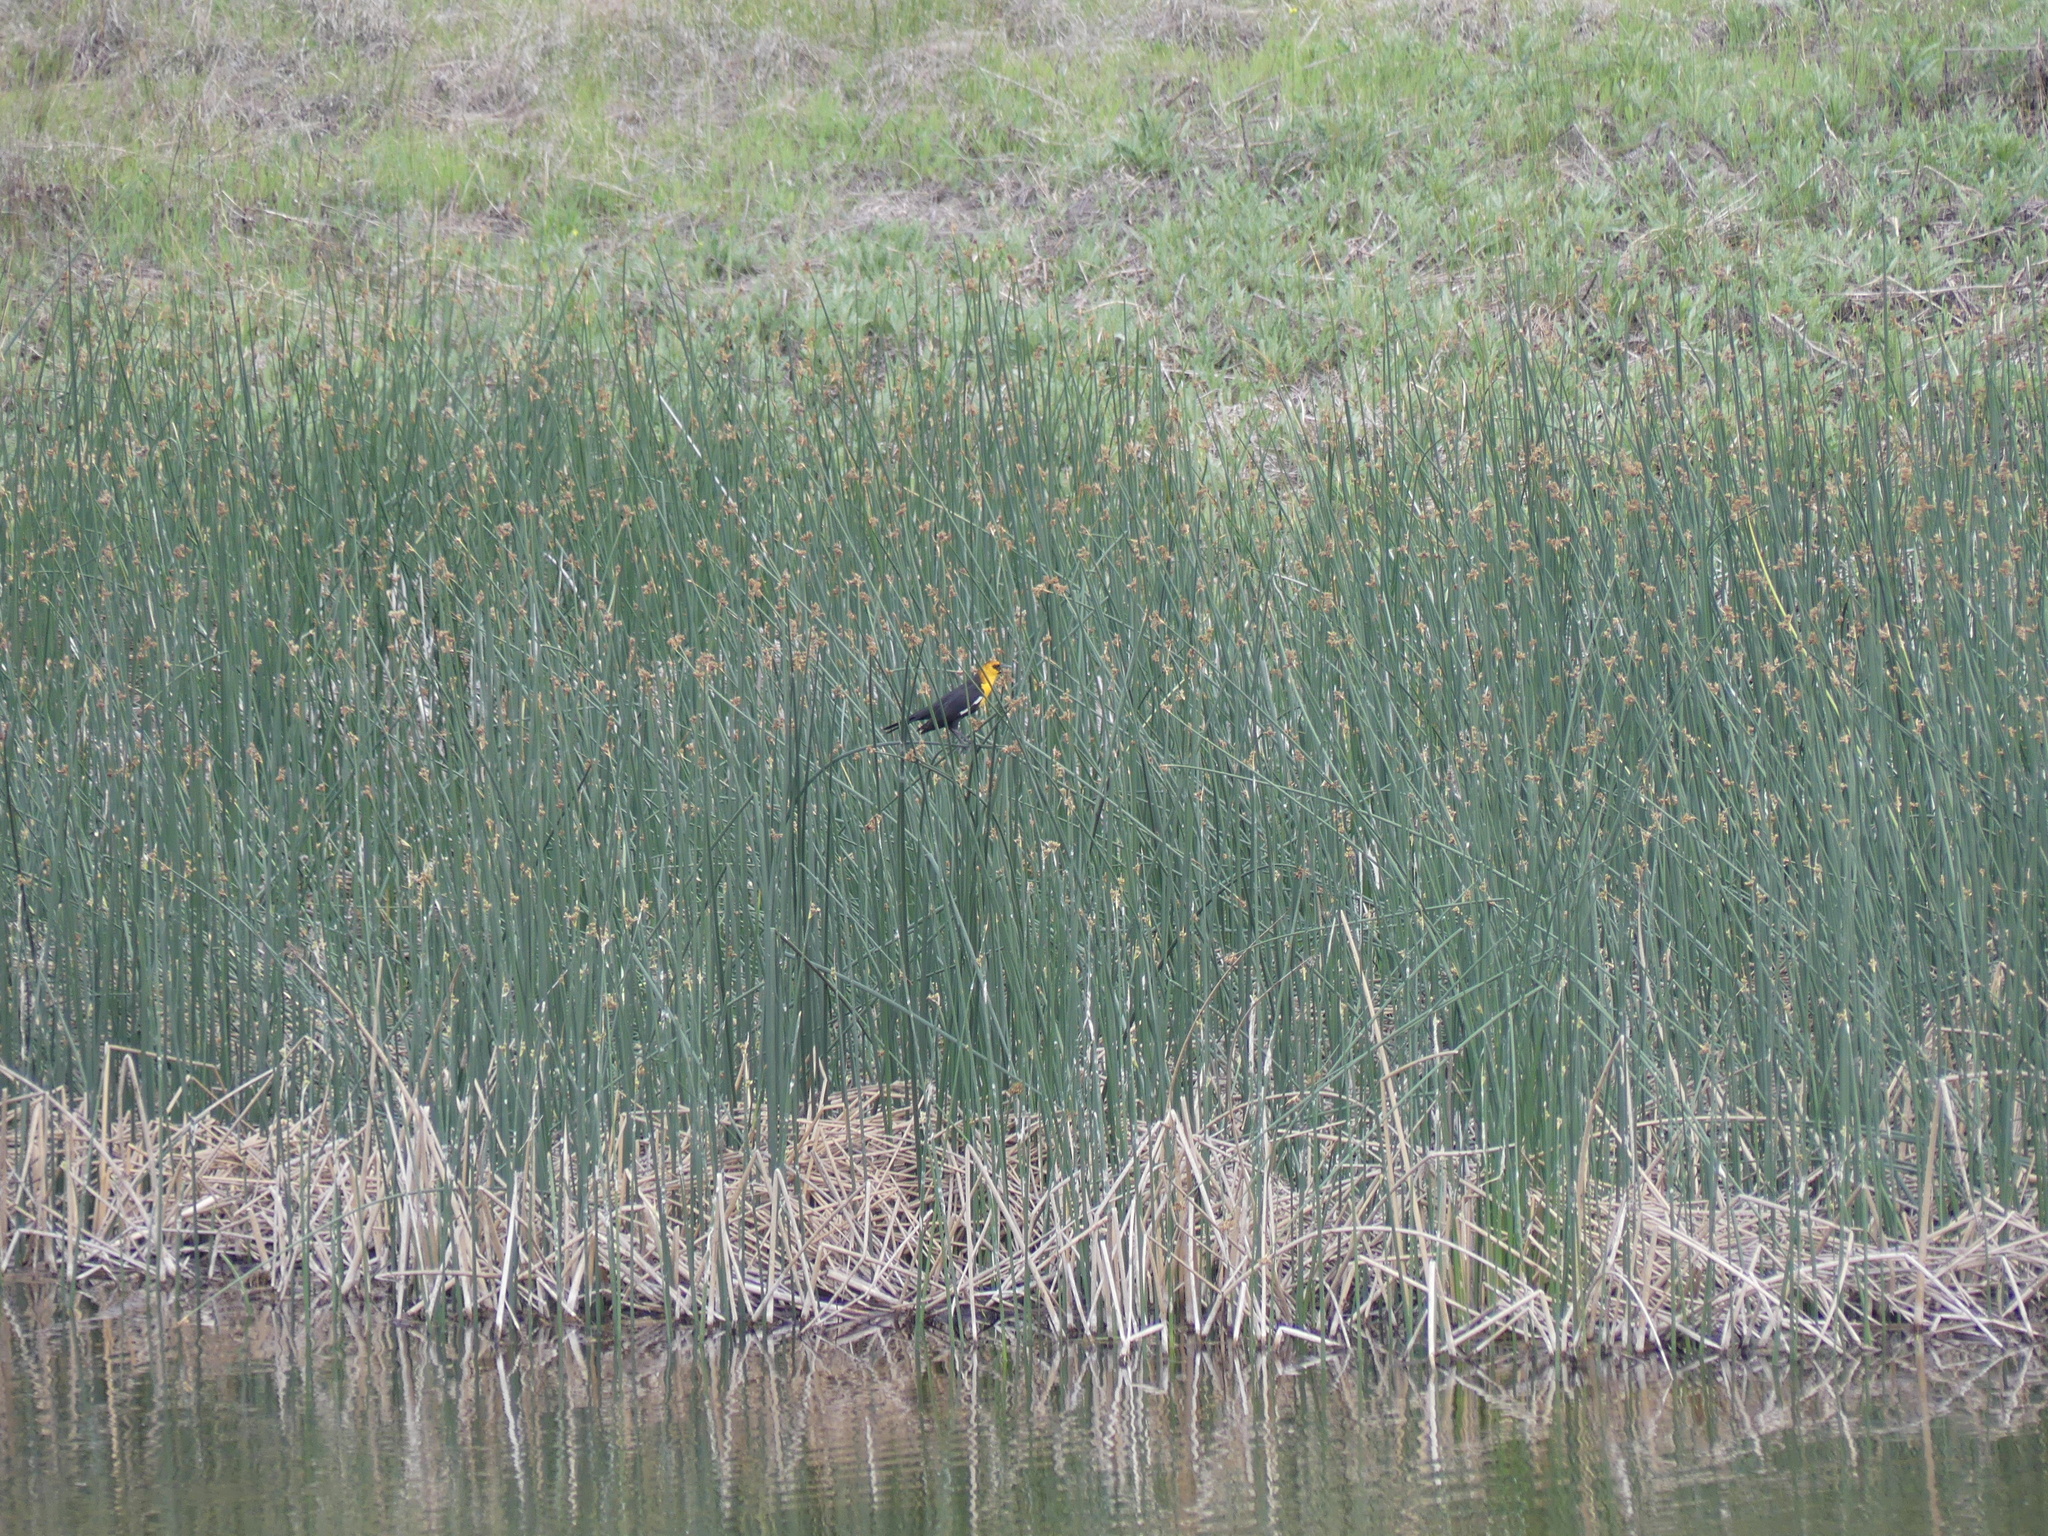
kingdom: Animalia
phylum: Chordata
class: Aves
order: Passeriformes
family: Icteridae
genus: Xanthocephalus
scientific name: Xanthocephalus xanthocephalus
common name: Yellow-headed blackbird
